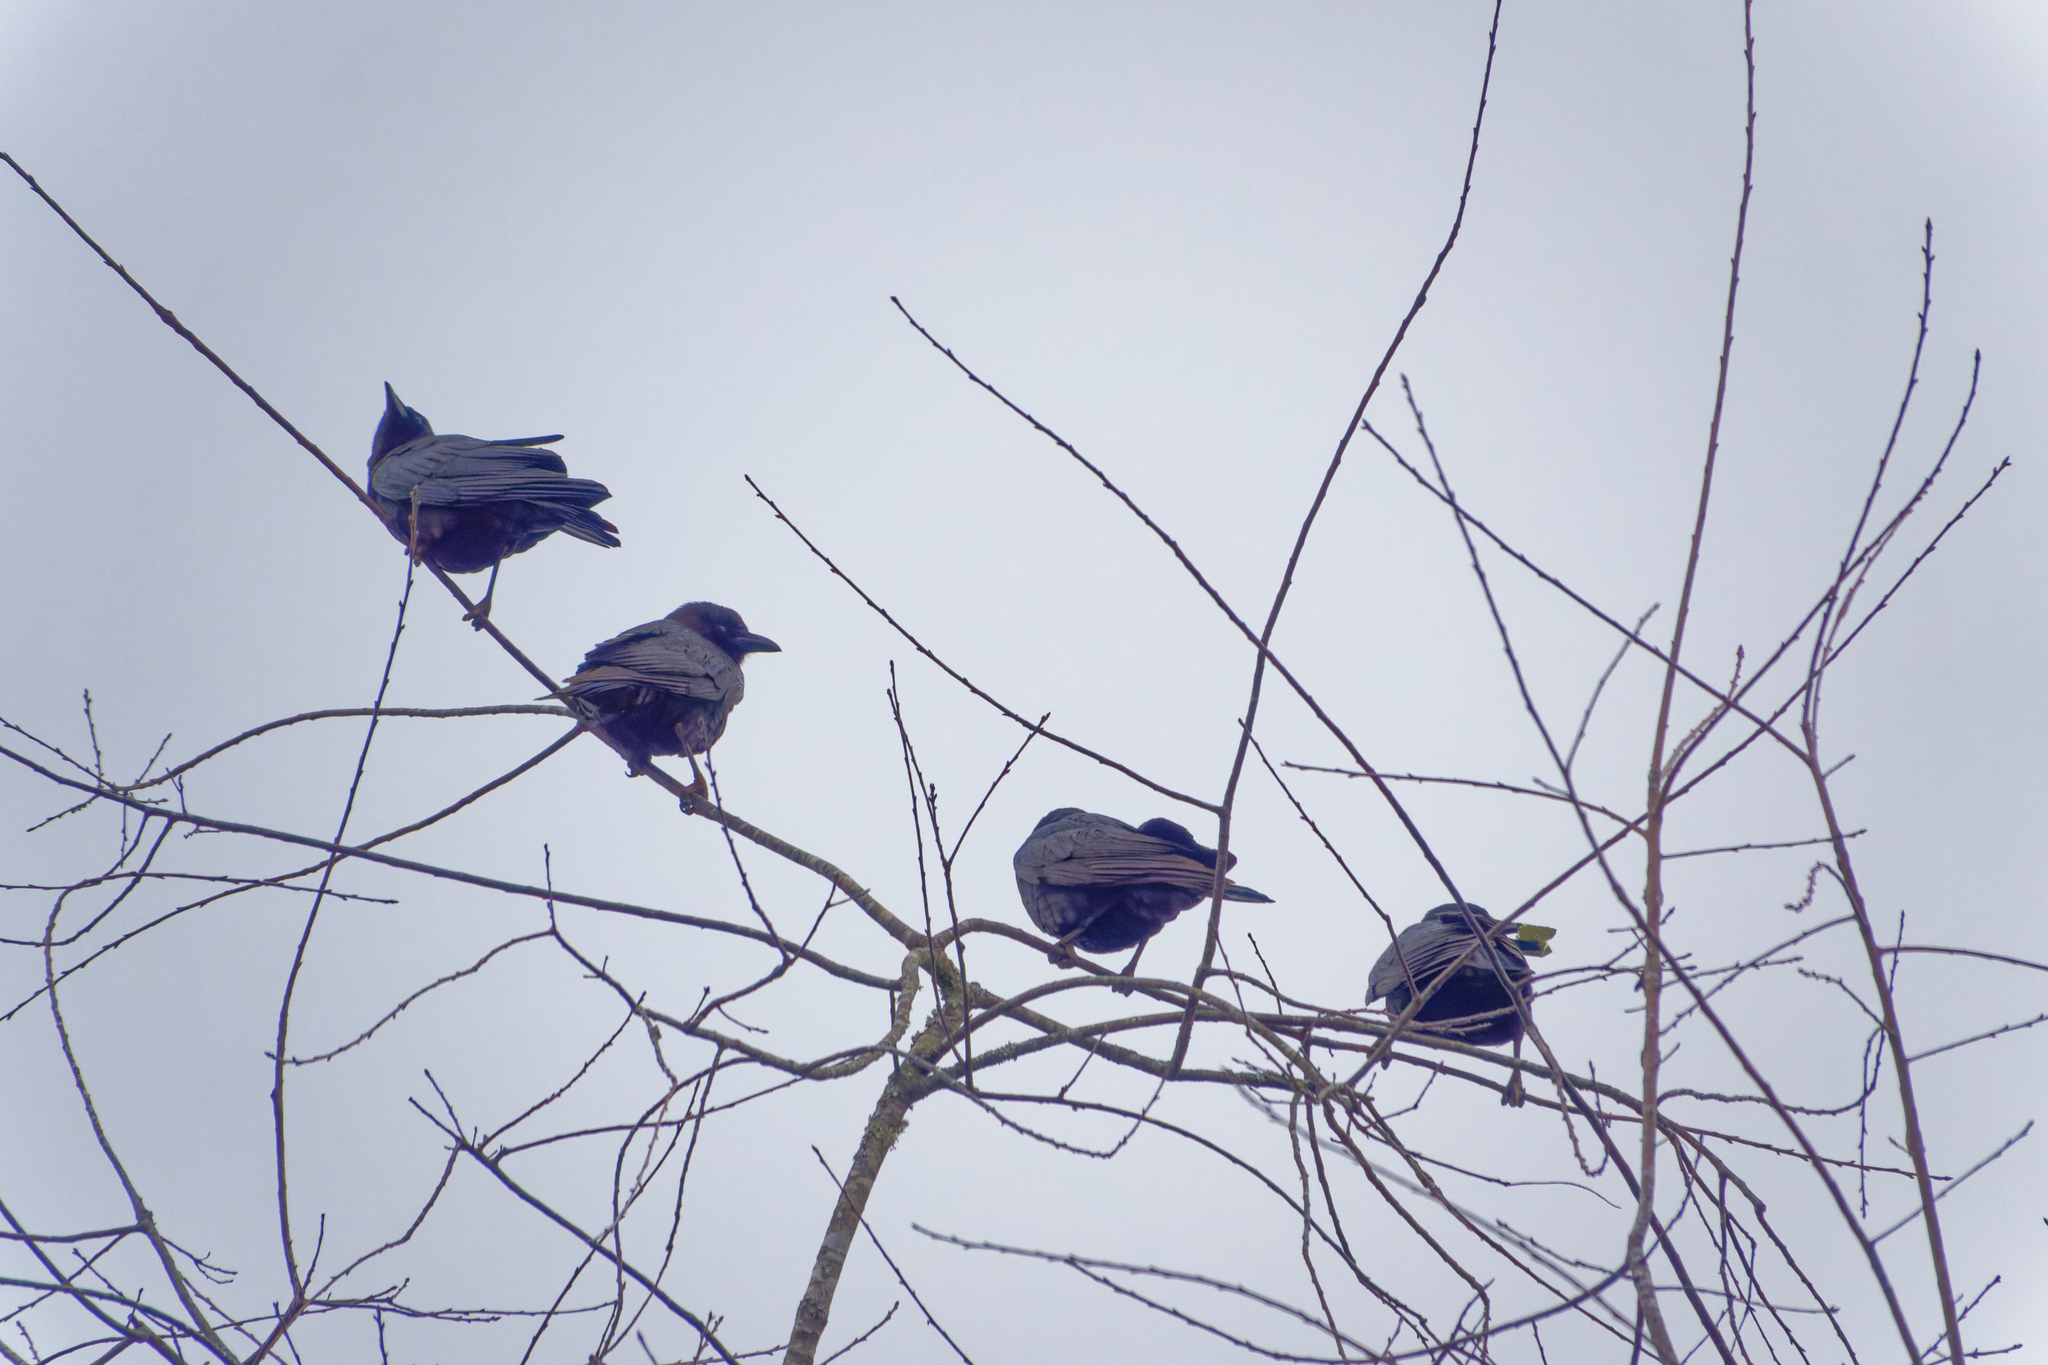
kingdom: Animalia
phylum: Chordata
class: Aves
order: Passeriformes
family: Corvidae
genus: Corvus
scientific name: Corvus brachyrhynchos
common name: American crow
